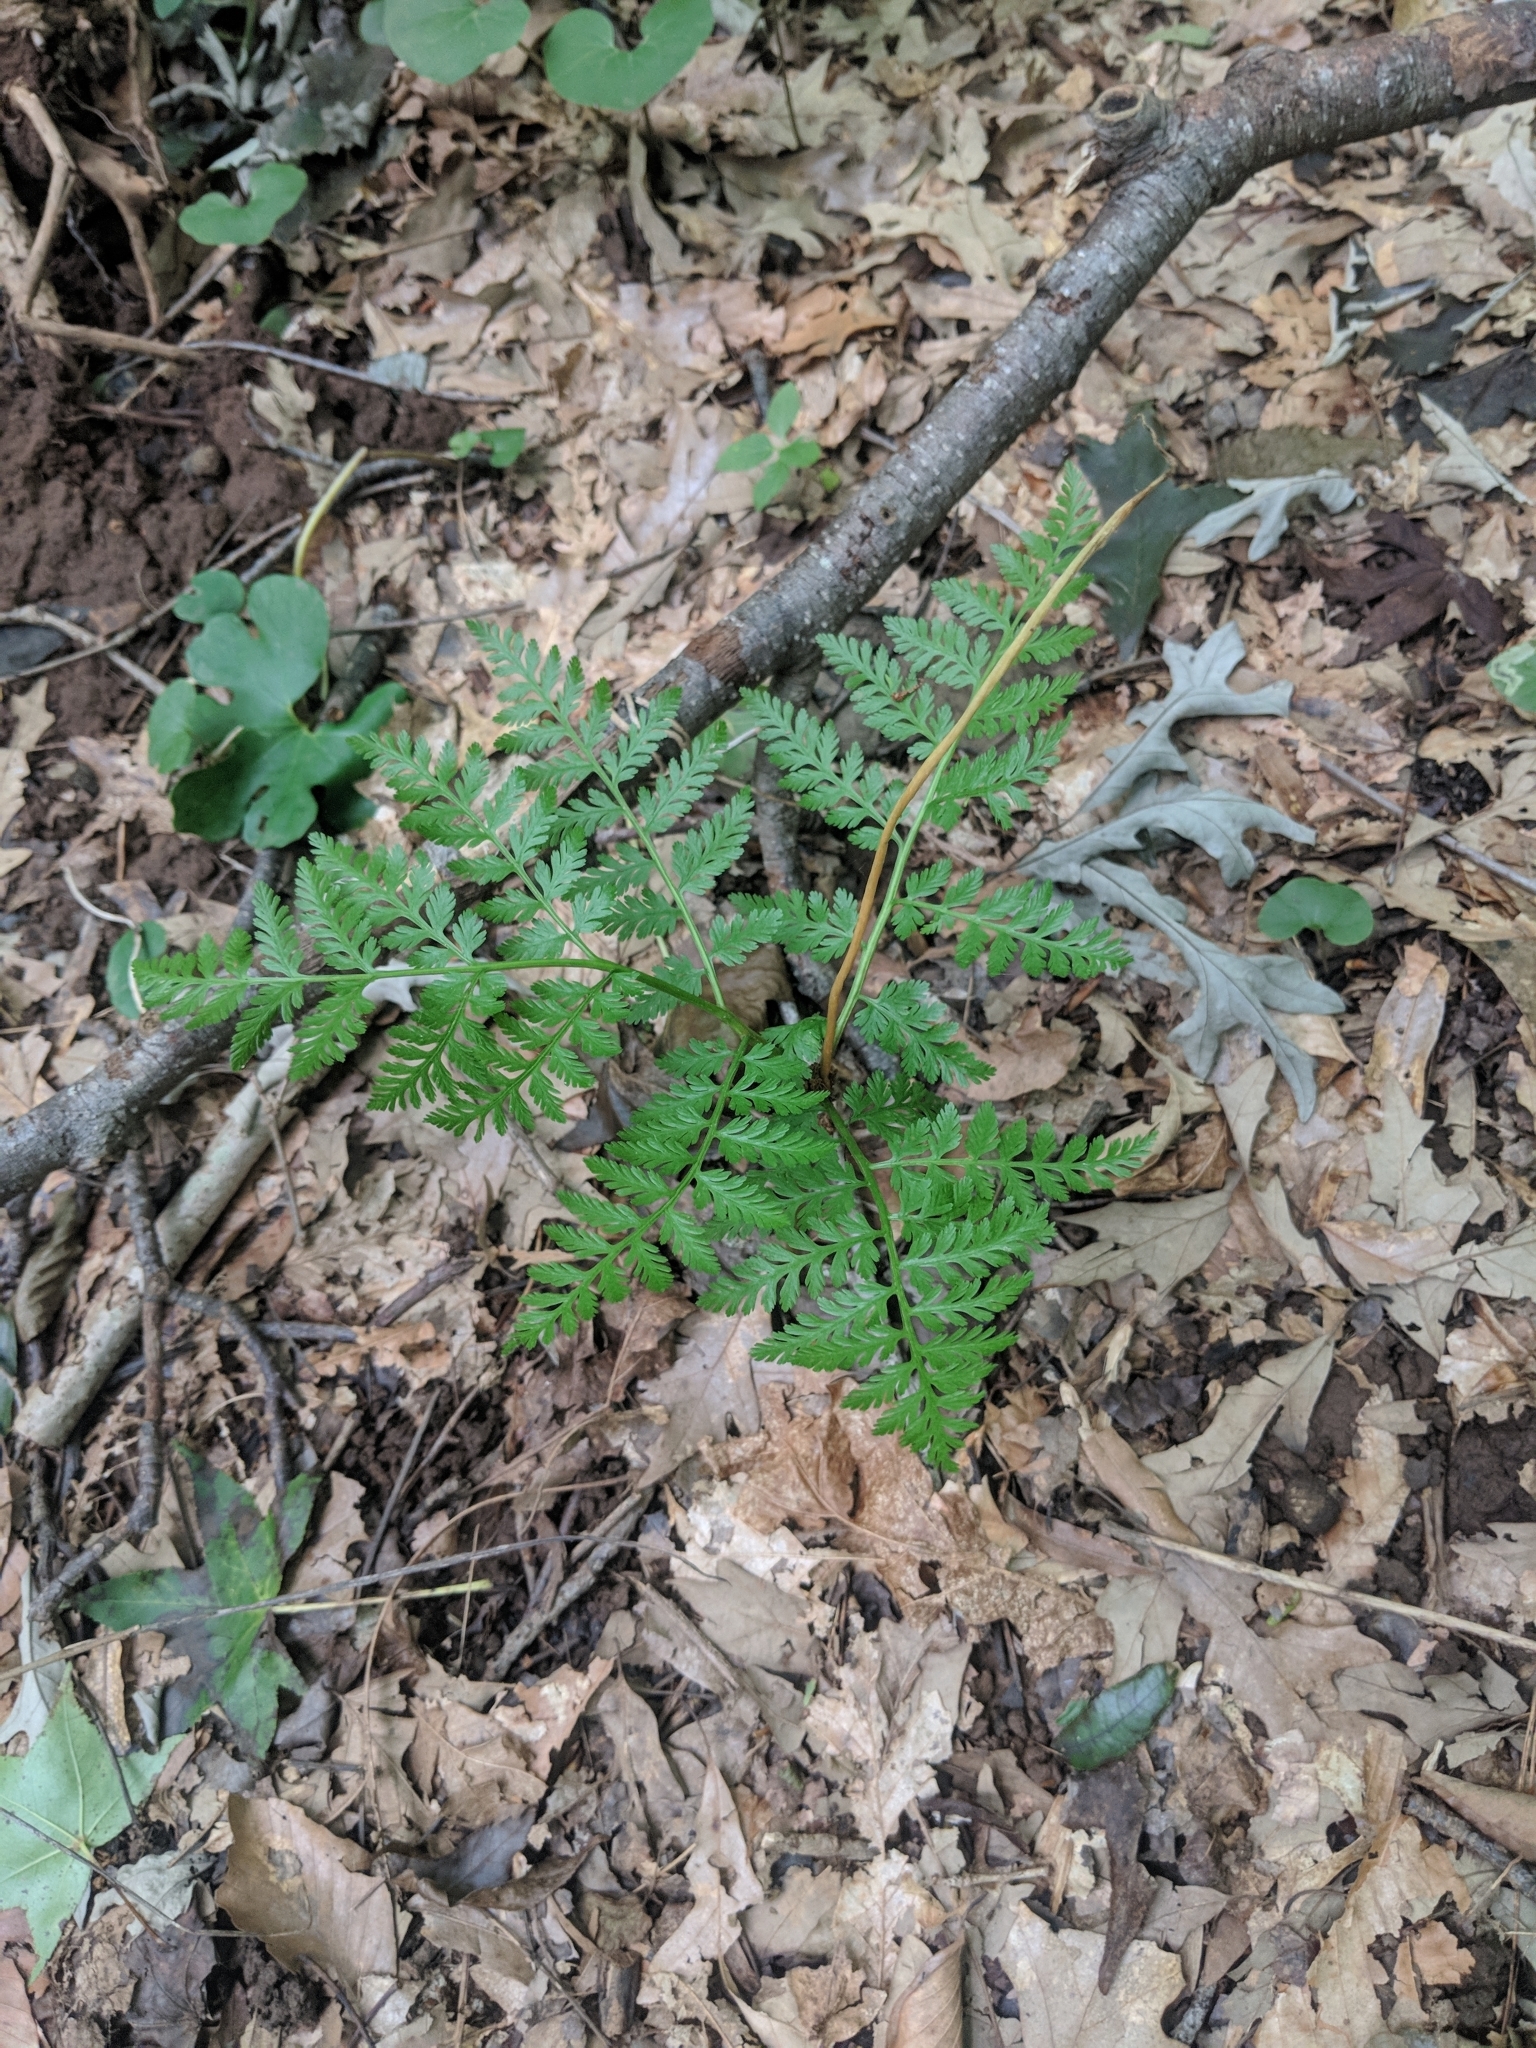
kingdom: Plantae
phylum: Tracheophyta
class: Polypodiopsida
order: Ophioglossales
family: Ophioglossaceae
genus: Botrypus
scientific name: Botrypus virginianus
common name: Common grapefern
